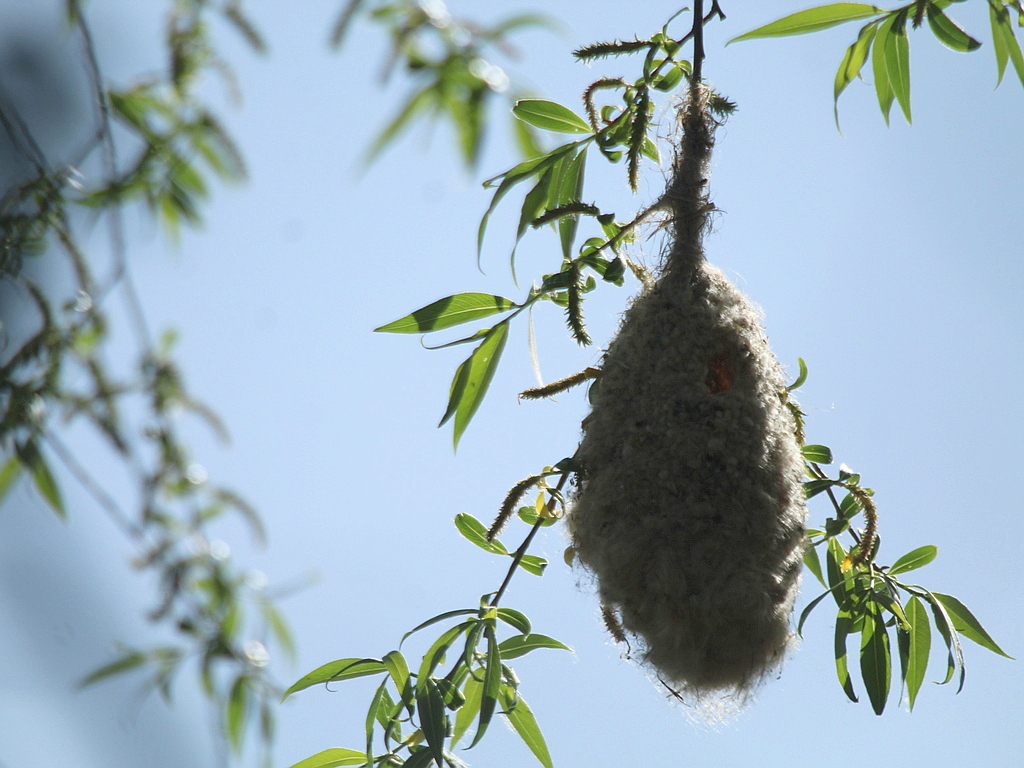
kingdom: Animalia
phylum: Chordata
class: Aves
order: Passeriformes
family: Remizidae
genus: Remiz
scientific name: Remiz pendulinus
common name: Eurasian penduline tit
